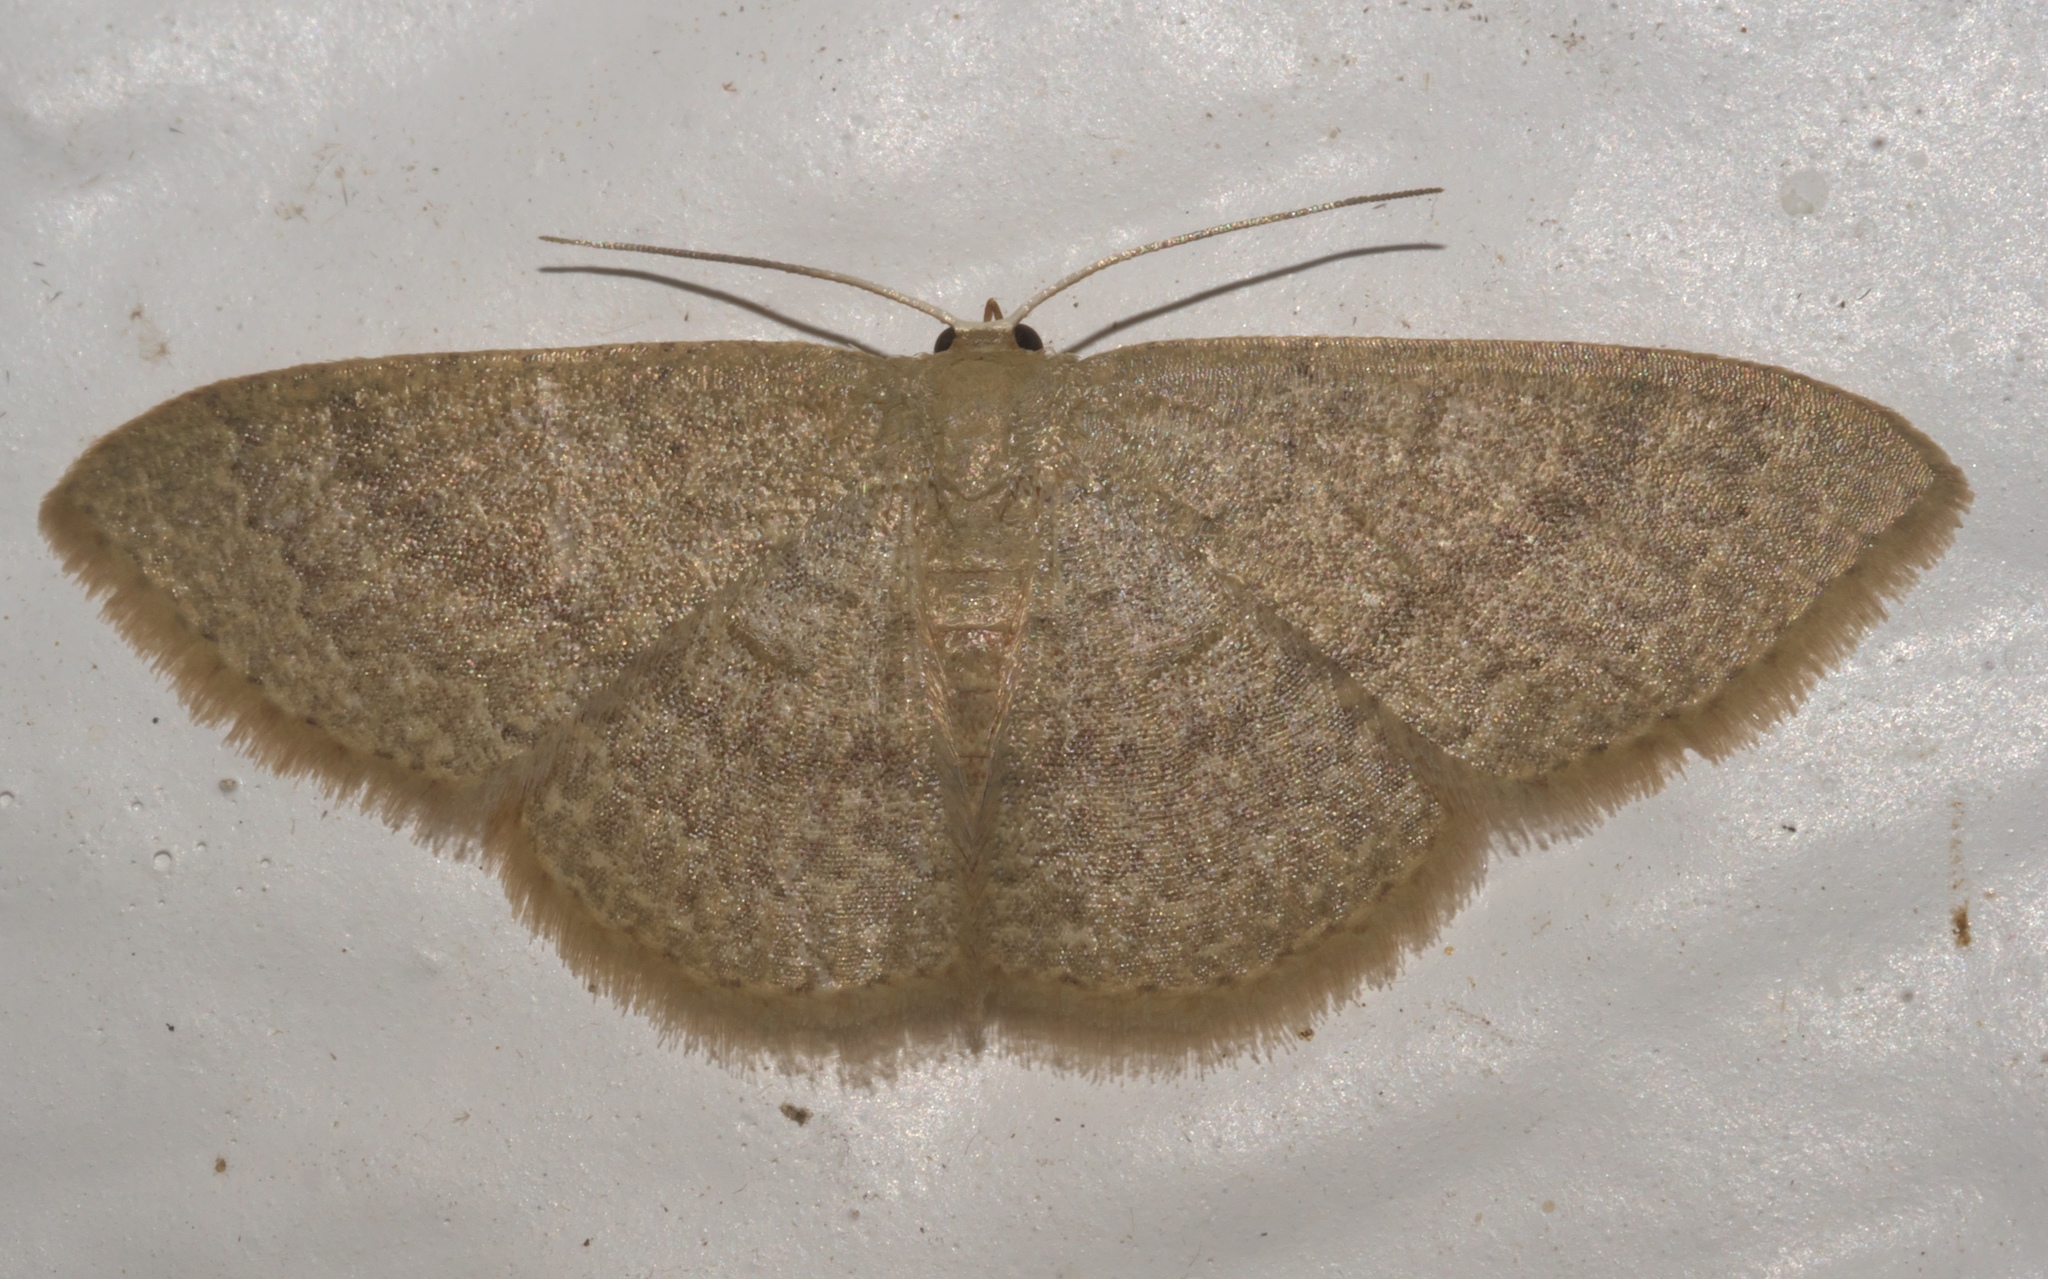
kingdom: Animalia
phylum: Arthropoda
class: Insecta
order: Lepidoptera
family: Geometridae
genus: Pleuroprucha
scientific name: Pleuroprucha insulsaria
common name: Common tan wave
